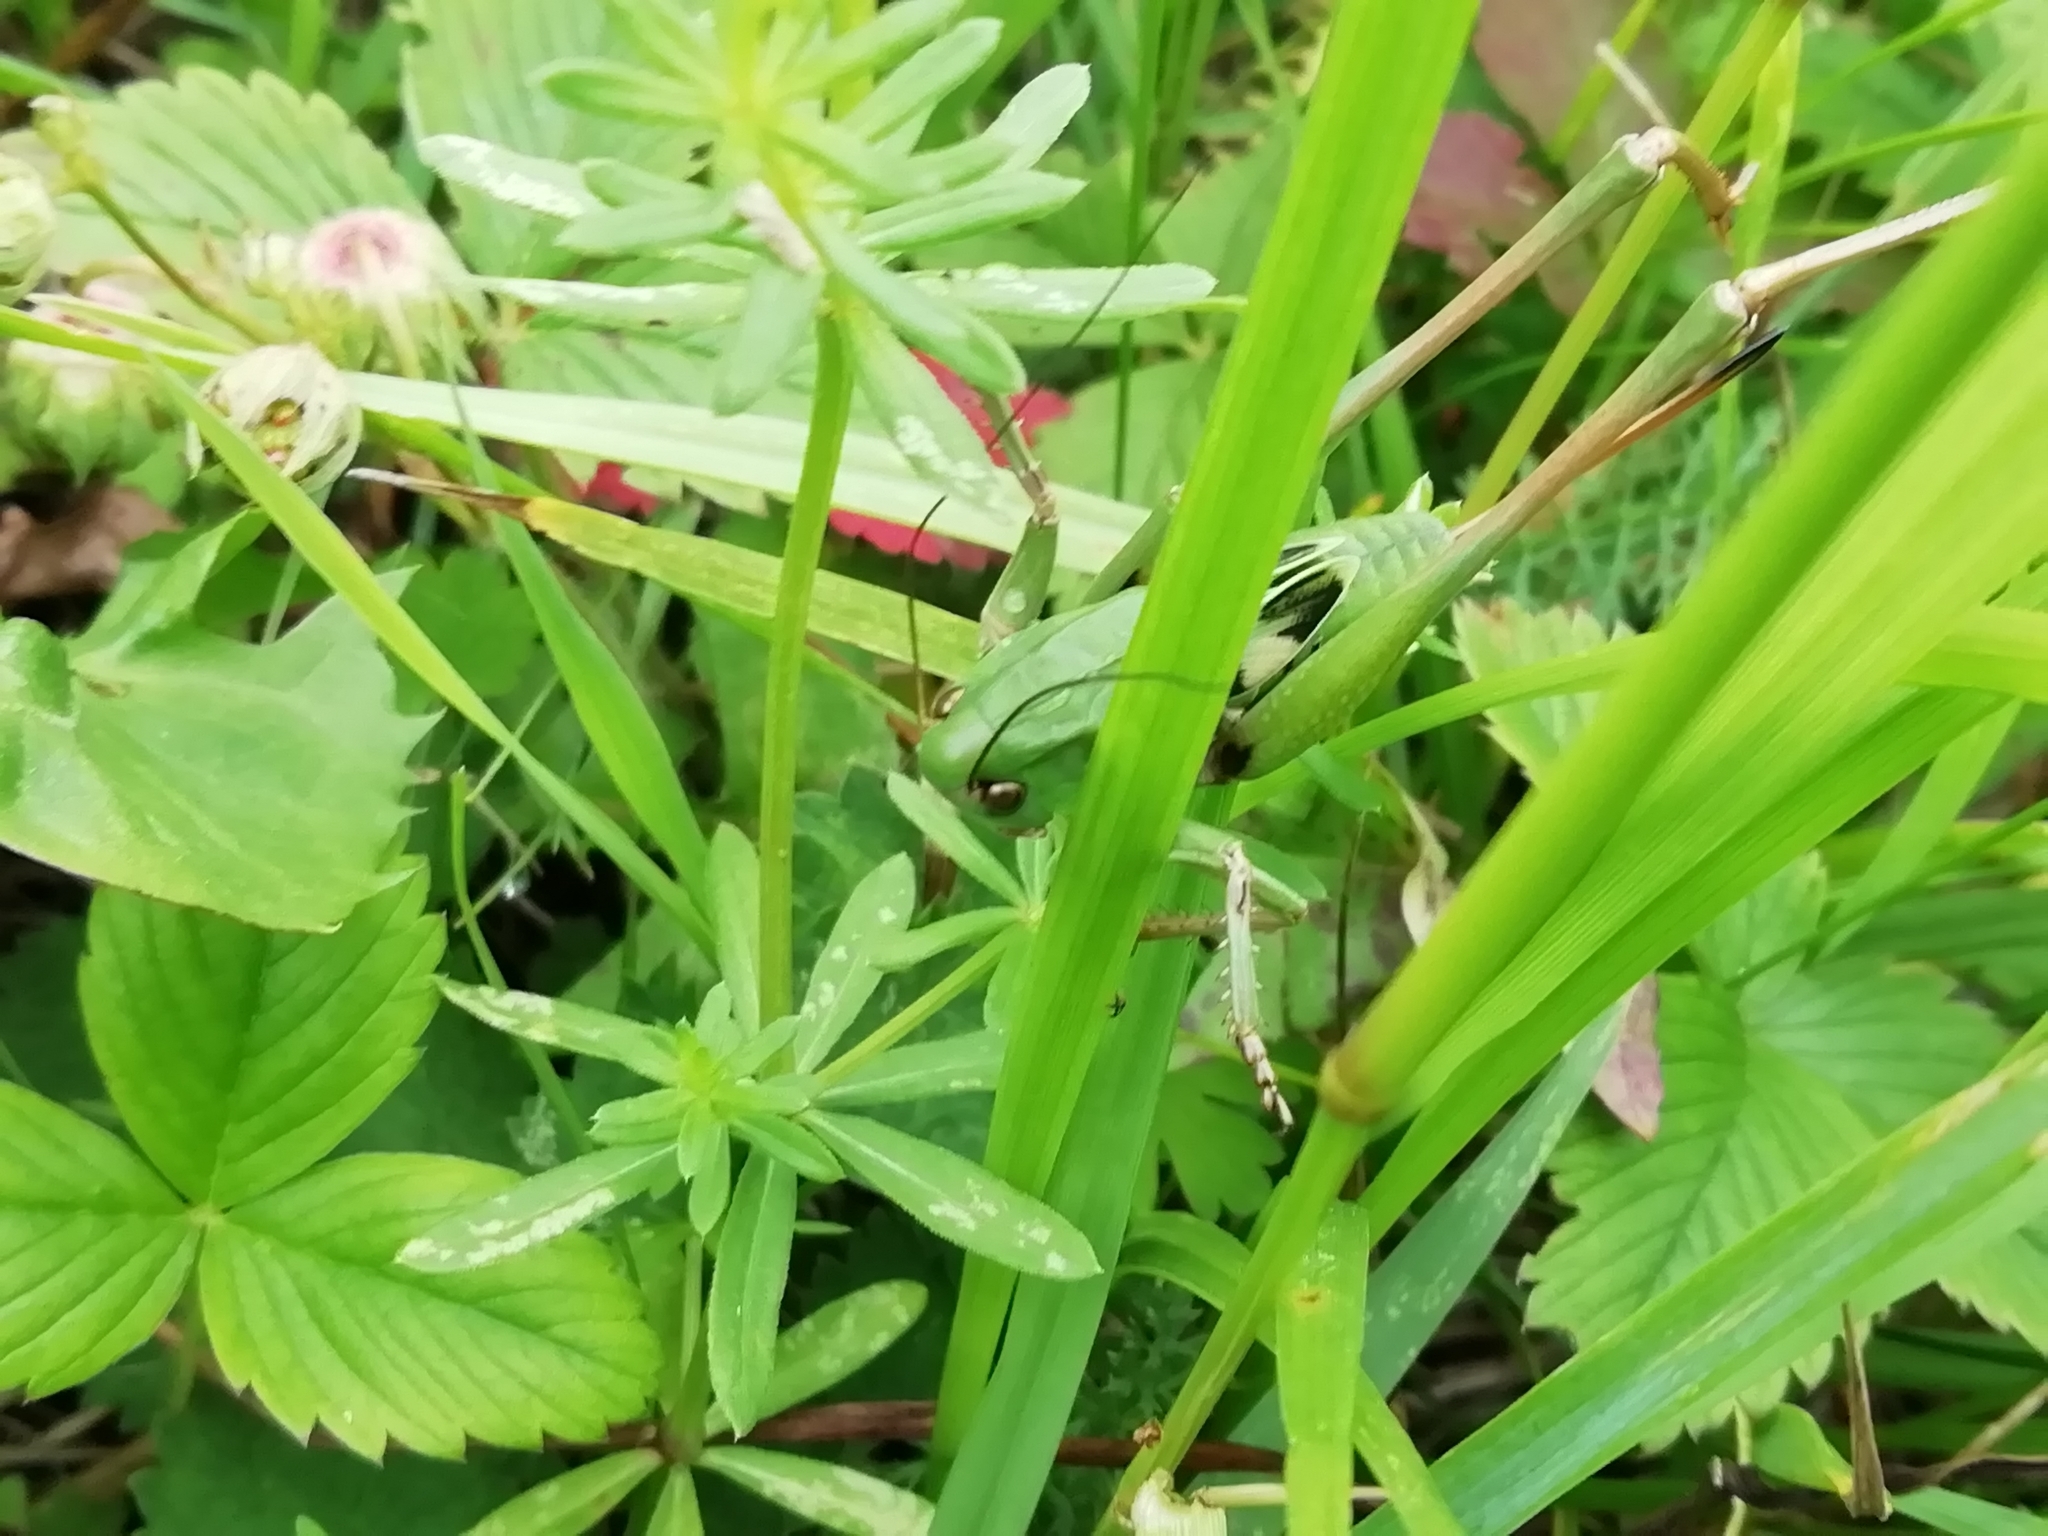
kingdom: Animalia
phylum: Arthropoda
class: Insecta
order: Orthoptera
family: Tettigoniidae
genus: Decticus
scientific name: Decticus verrucivorus
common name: Wart-biter
